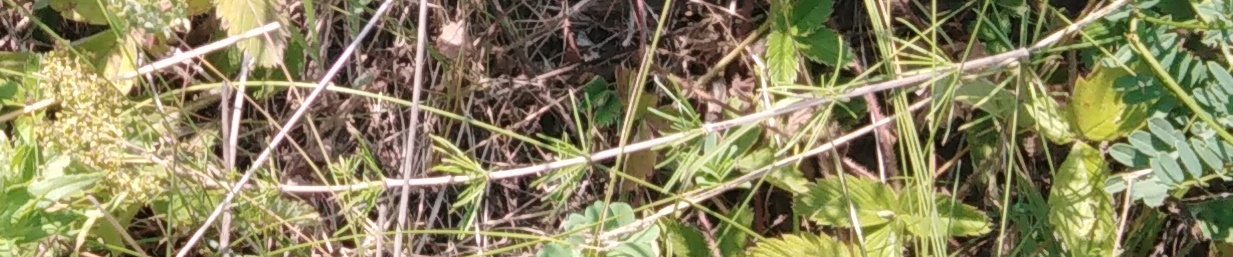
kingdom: Plantae
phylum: Tracheophyta
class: Magnoliopsida
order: Gentianales
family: Rubiaceae
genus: Galium
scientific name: Galium verum
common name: Lady's bedstraw
